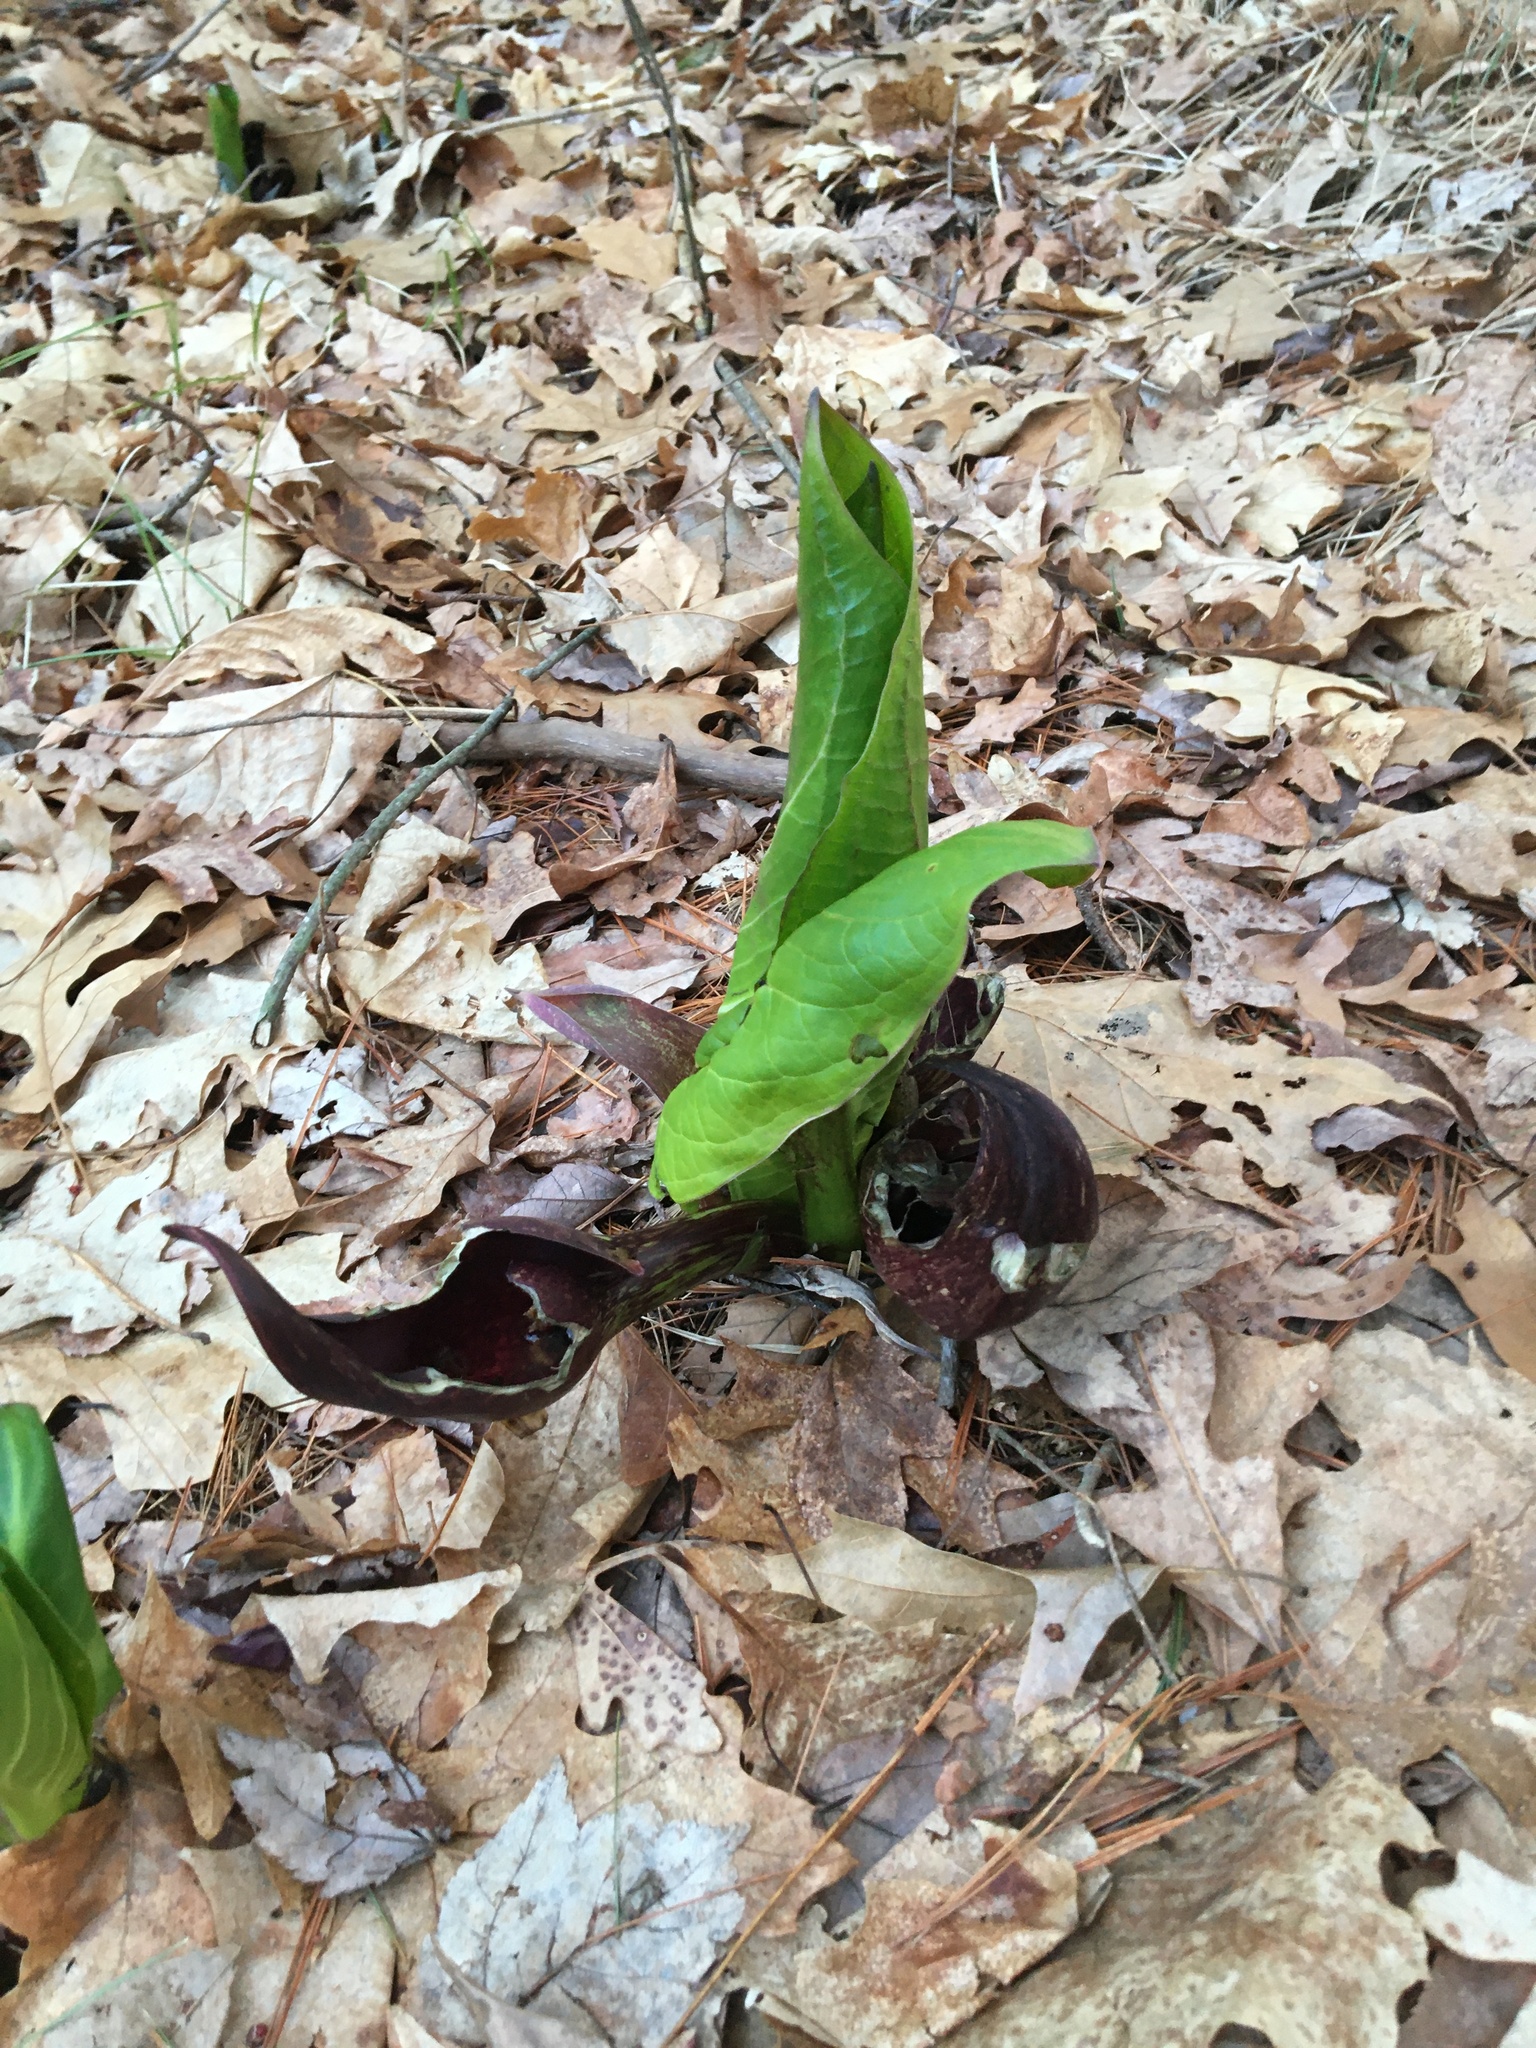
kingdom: Plantae
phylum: Tracheophyta
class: Liliopsida
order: Alismatales
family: Araceae
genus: Symplocarpus
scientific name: Symplocarpus foetidus
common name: Eastern skunk cabbage
